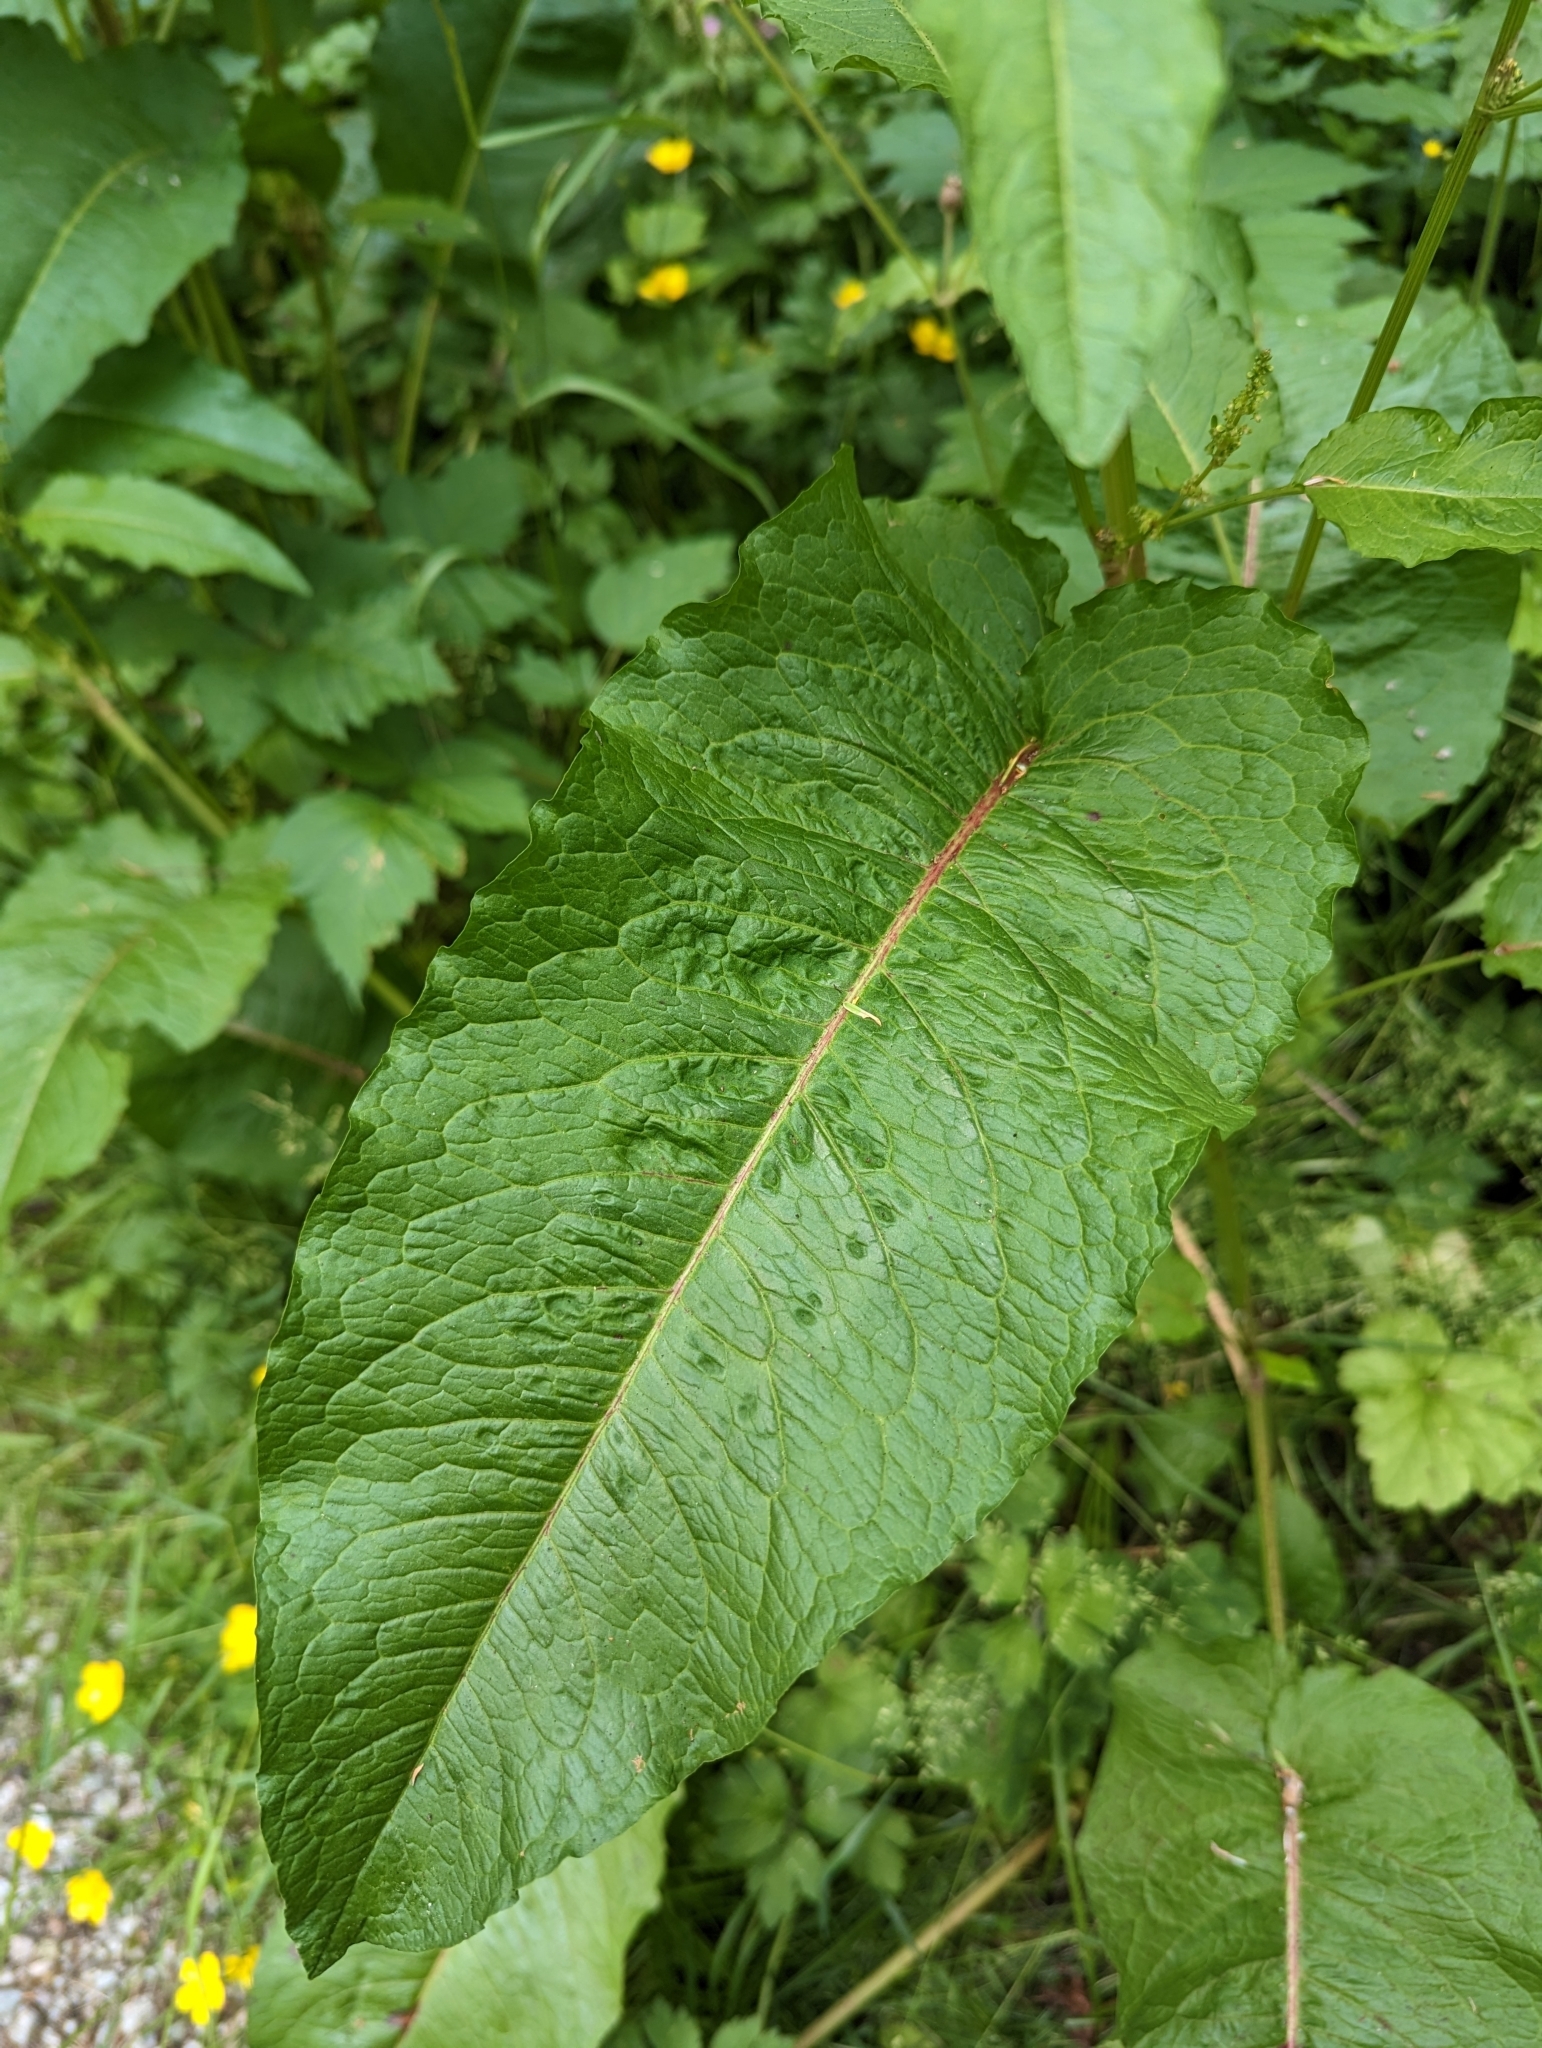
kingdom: Plantae
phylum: Tracheophyta
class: Magnoliopsida
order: Caryophyllales
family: Polygonaceae
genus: Rumex
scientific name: Rumex obtusifolius
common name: Bitter dock
